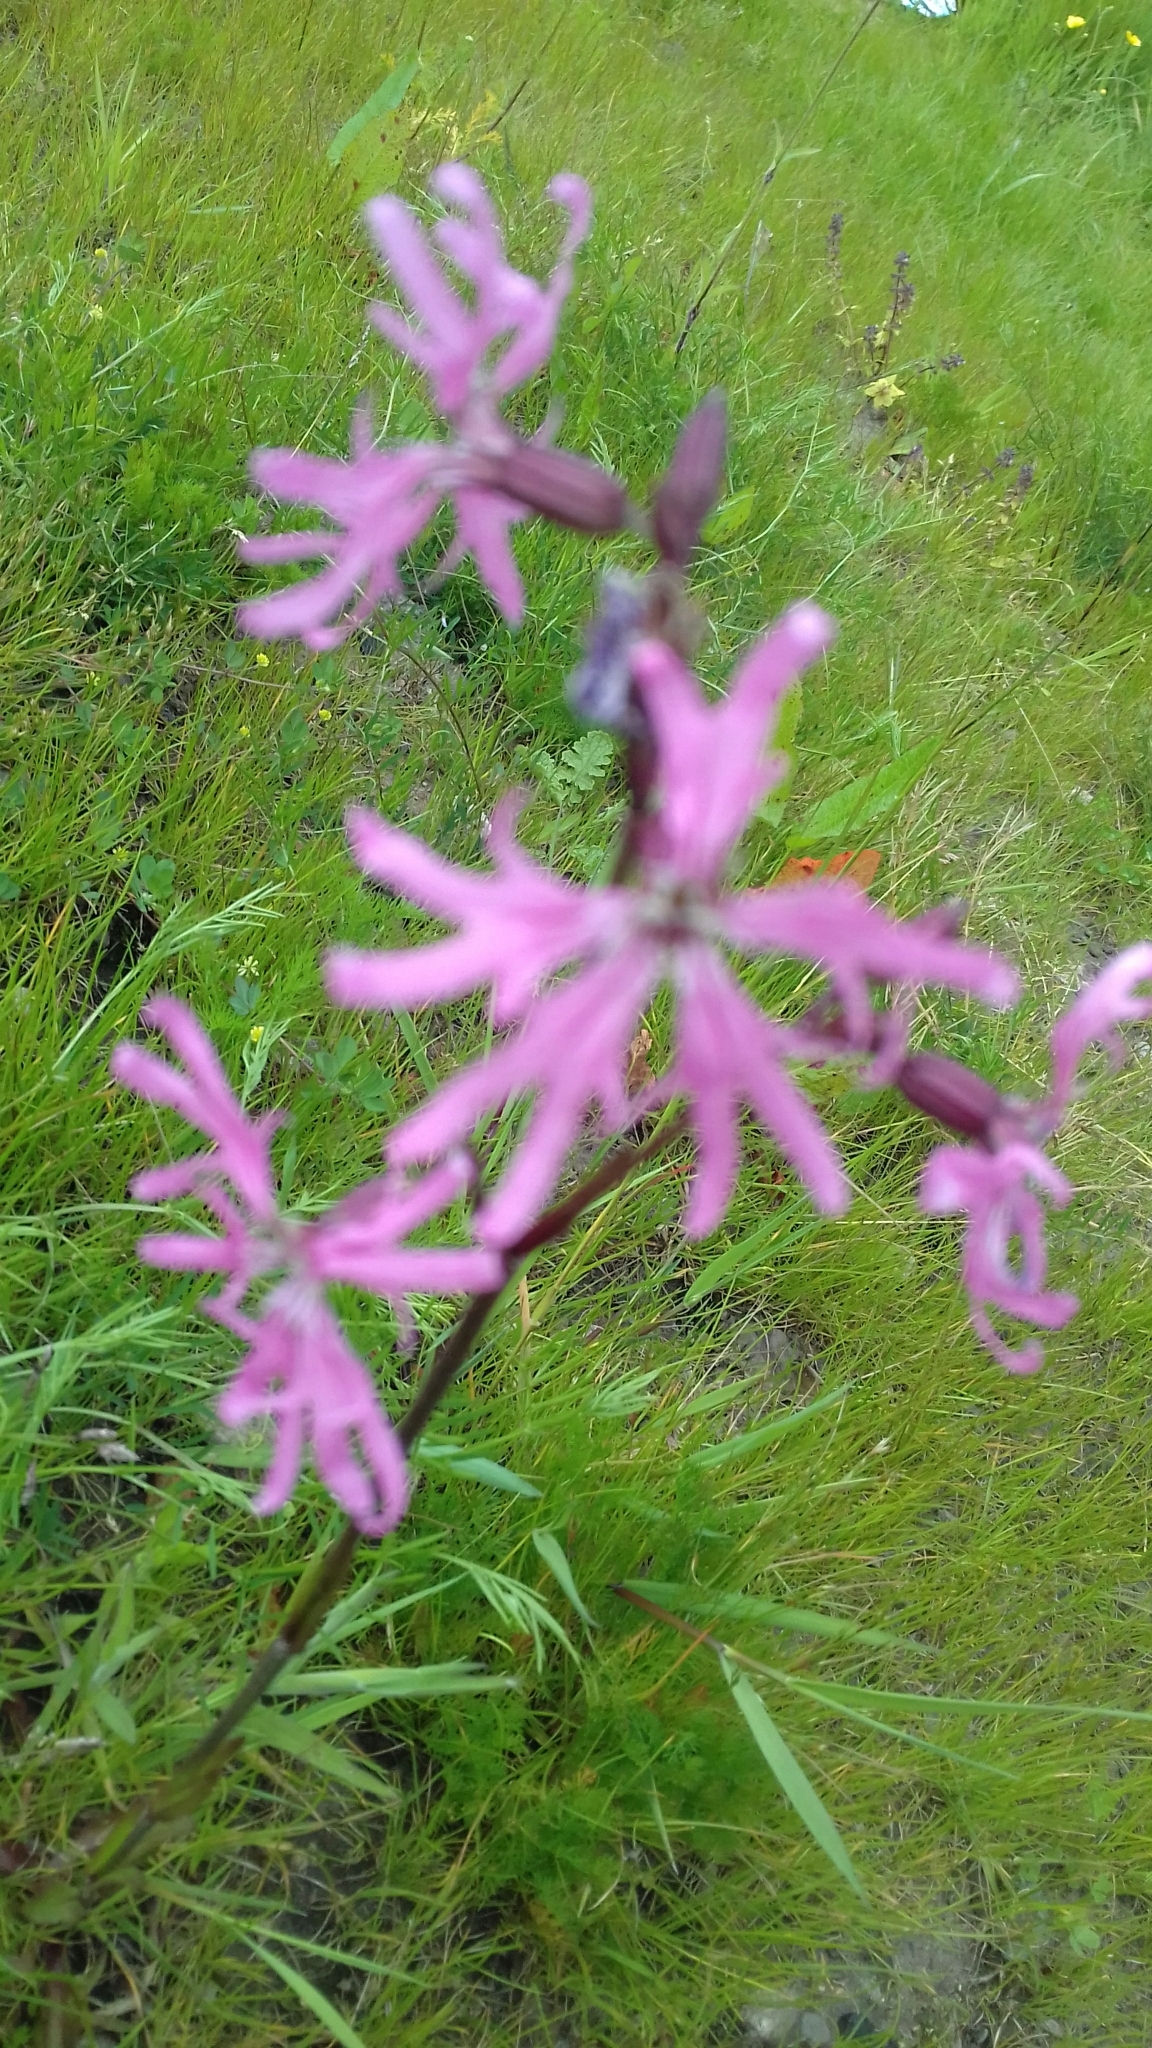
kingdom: Plantae
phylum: Tracheophyta
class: Magnoliopsida
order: Caryophyllales
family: Caryophyllaceae
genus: Silene
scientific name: Silene flos-cuculi
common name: Ragged-robin
